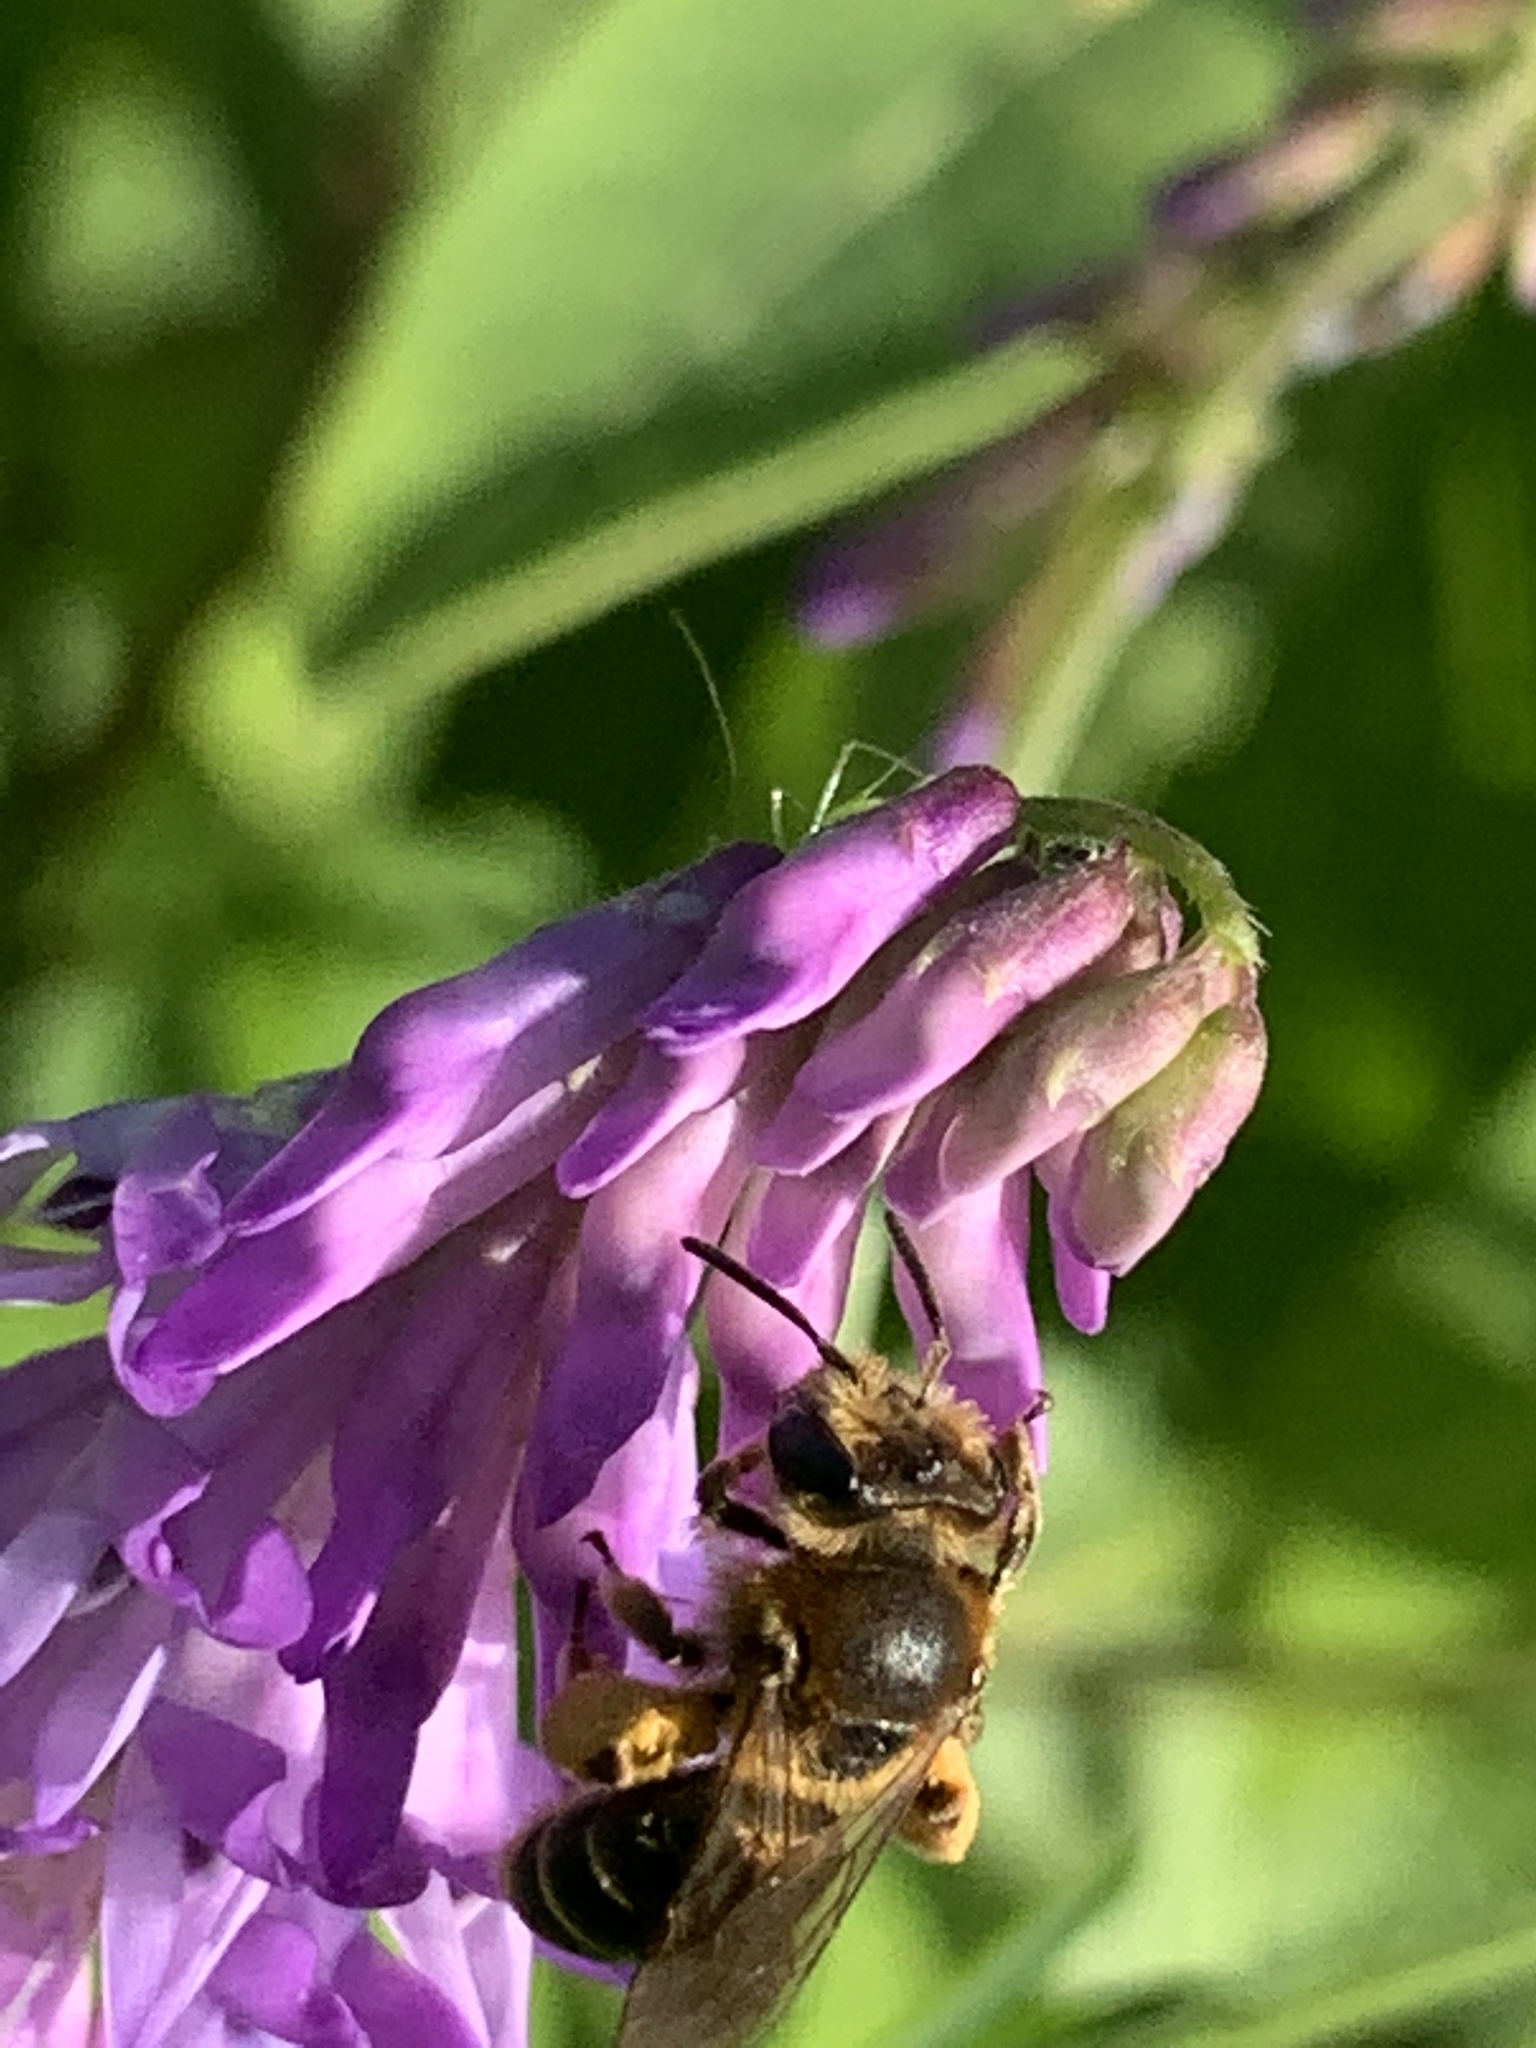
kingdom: Animalia
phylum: Arthropoda
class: Insecta
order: Hymenoptera
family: Andrenidae
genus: Andrena
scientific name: Andrena wilkella
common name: Wilke's mining bee
